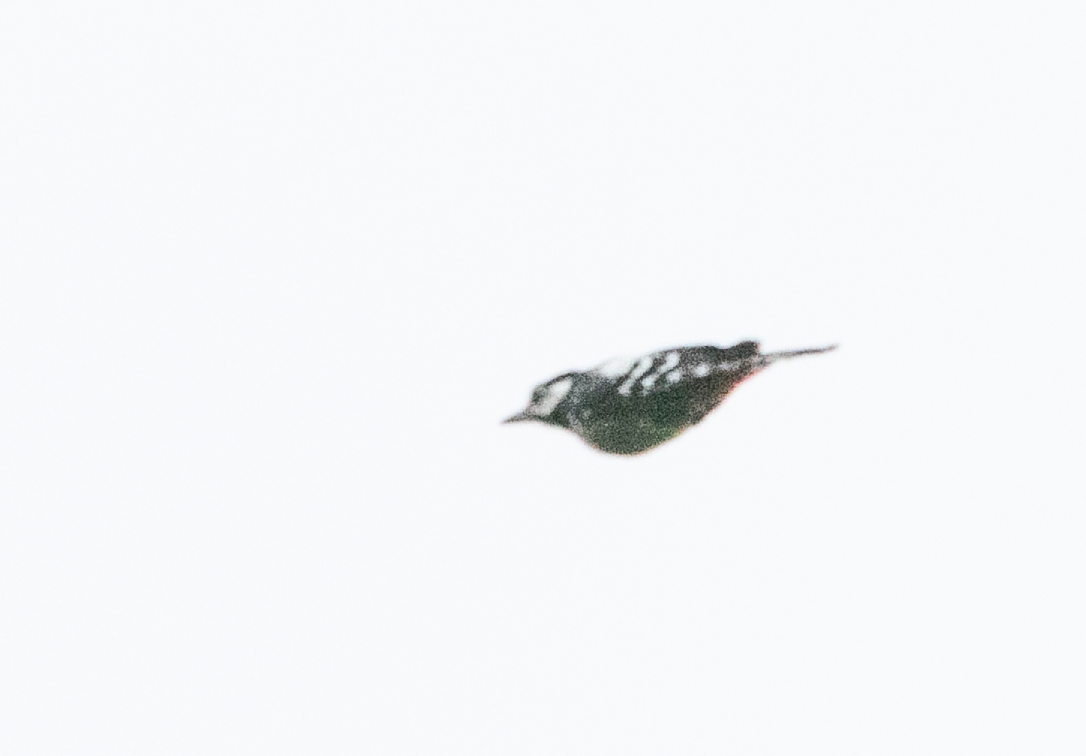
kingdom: Animalia
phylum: Chordata
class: Aves
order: Piciformes
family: Picidae
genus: Dendrocopos
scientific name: Dendrocopos major
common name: Great spotted woodpecker
